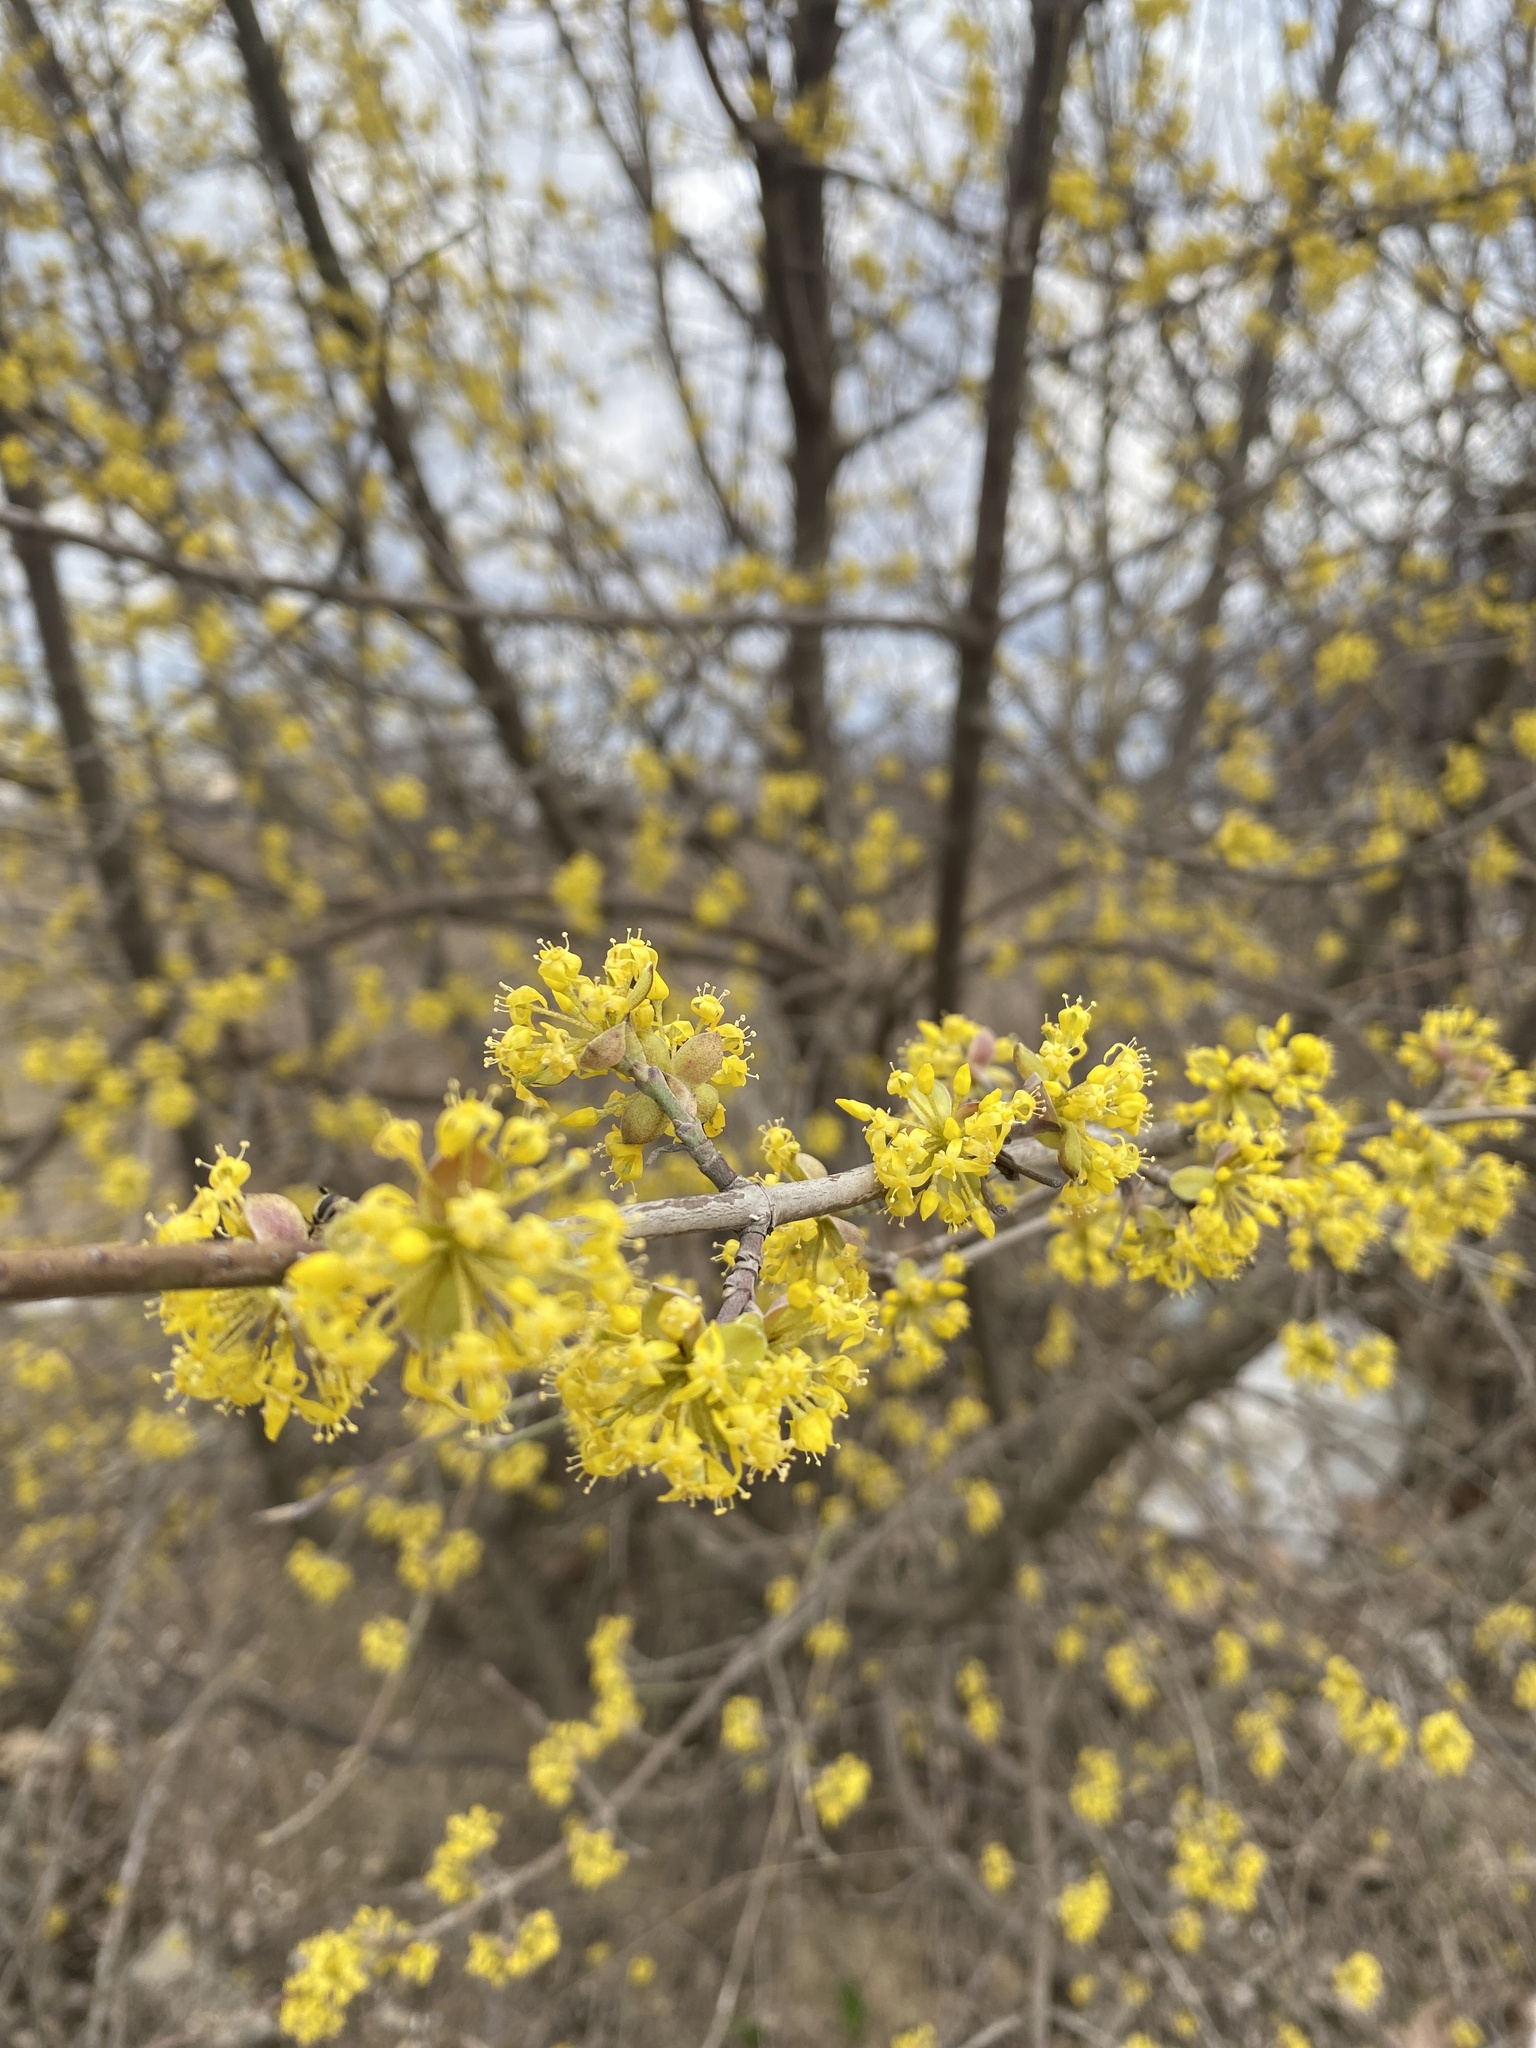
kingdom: Plantae
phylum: Tracheophyta
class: Magnoliopsida
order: Cornales
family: Cornaceae
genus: Cornus
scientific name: Cornus mas
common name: Cornelian-cherry
